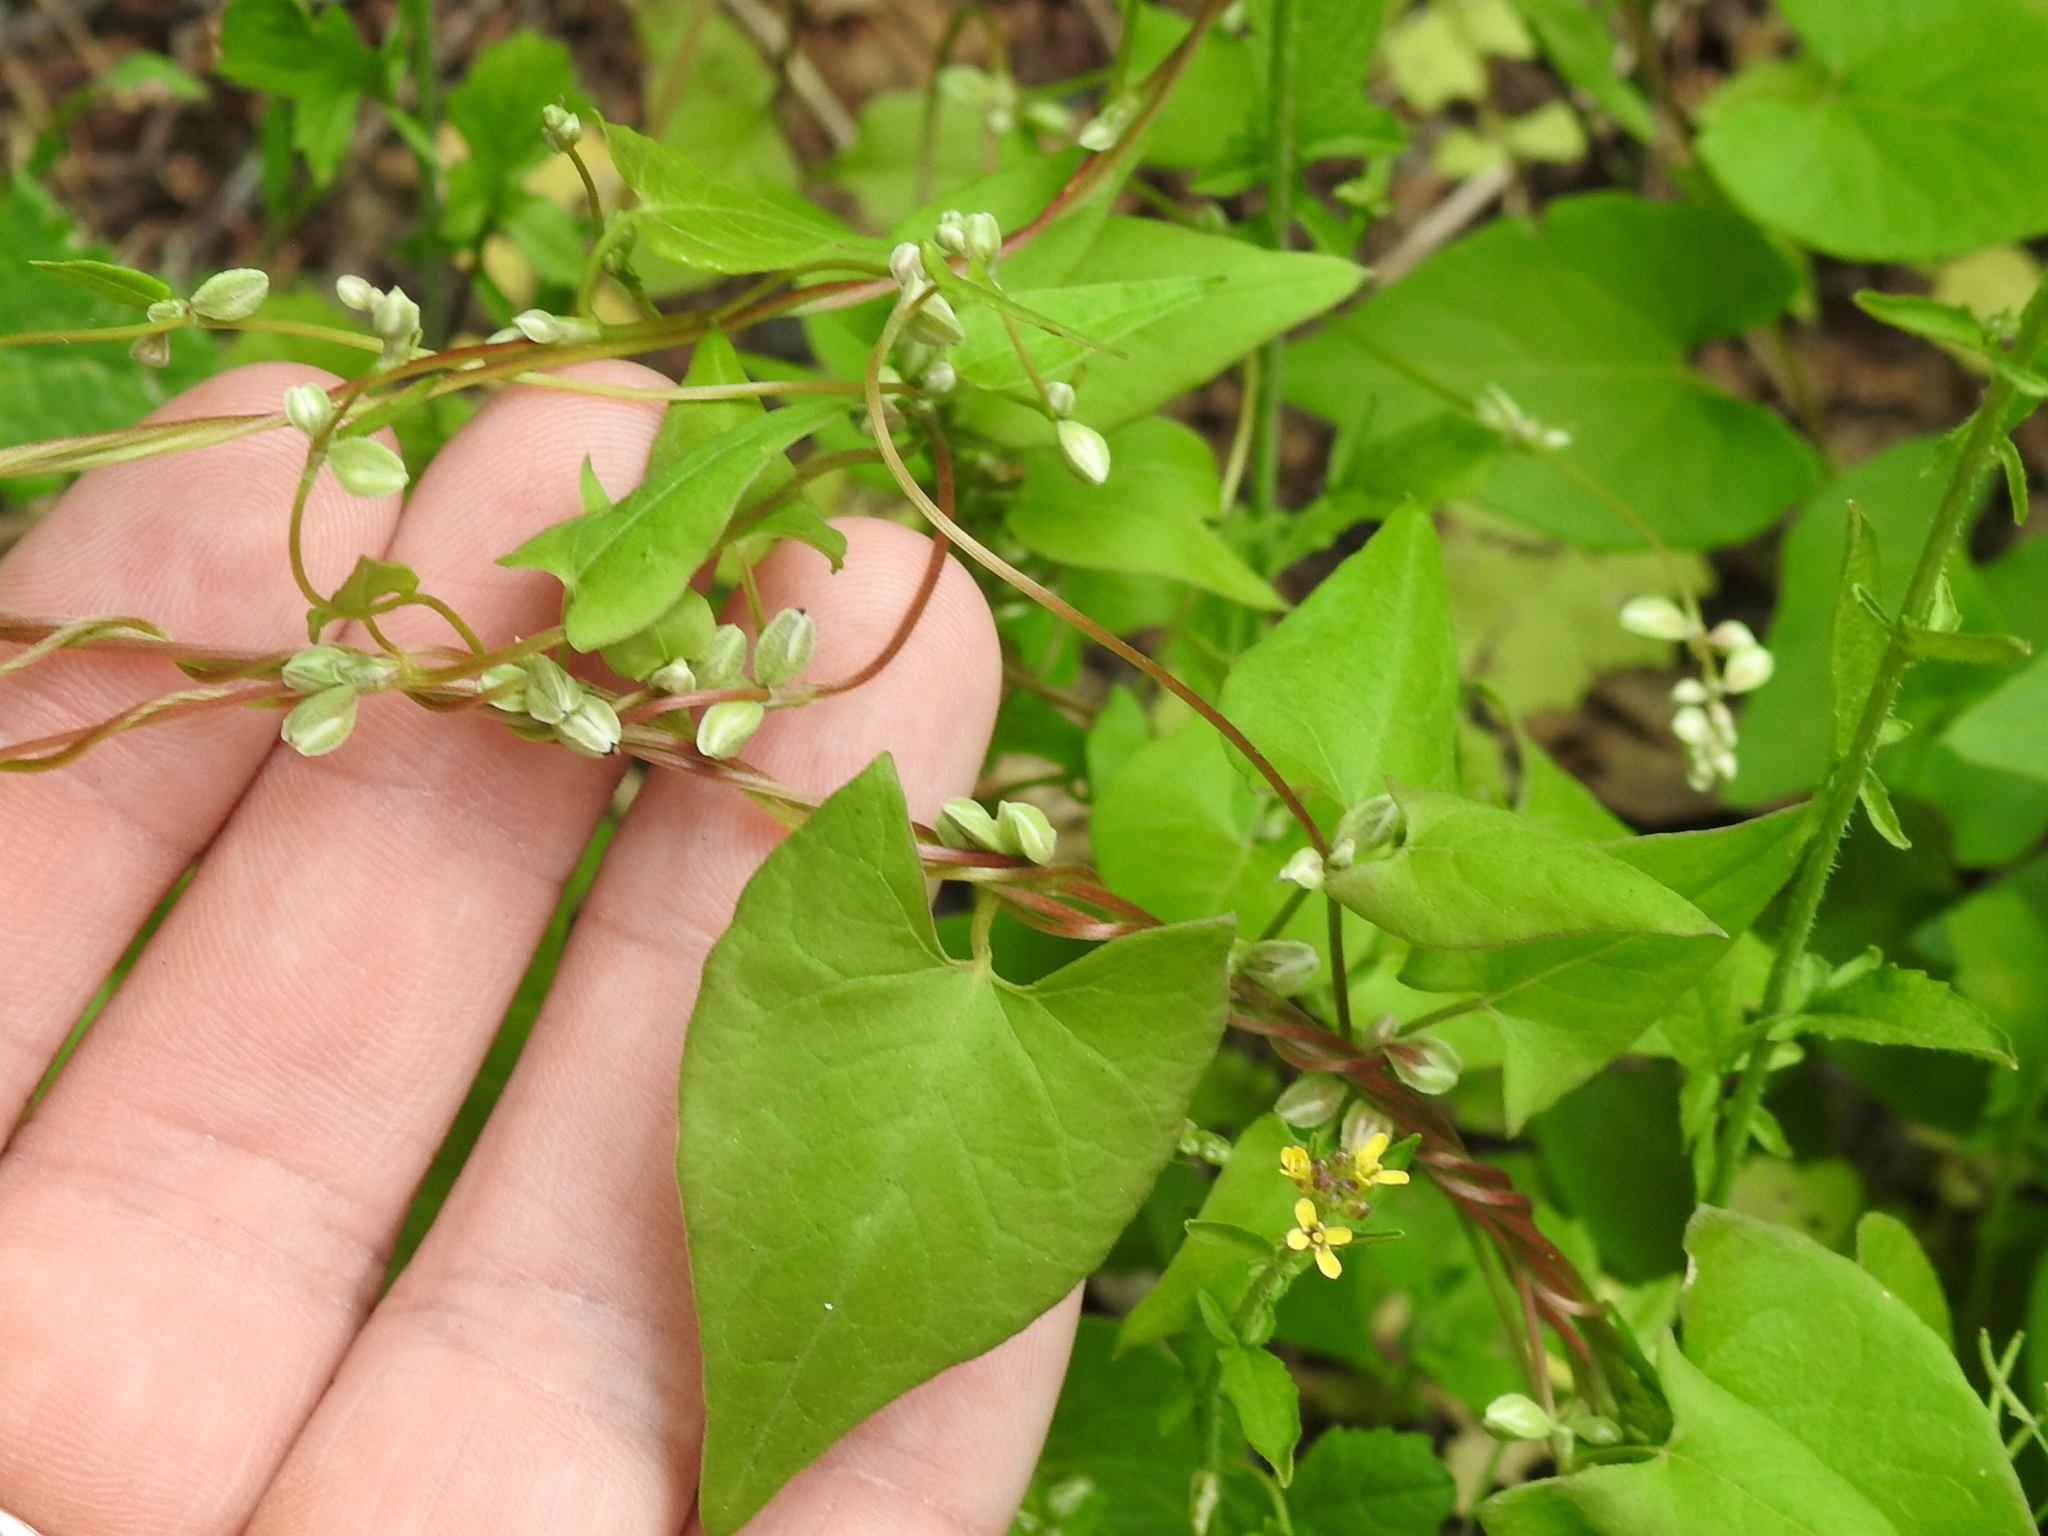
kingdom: Plantae
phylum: Tracheophyta
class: Magnoliopsida
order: Caryophyllales
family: Polygonaceae
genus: Fallopia
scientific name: Fallopia convolvulus
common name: Black bindweed
